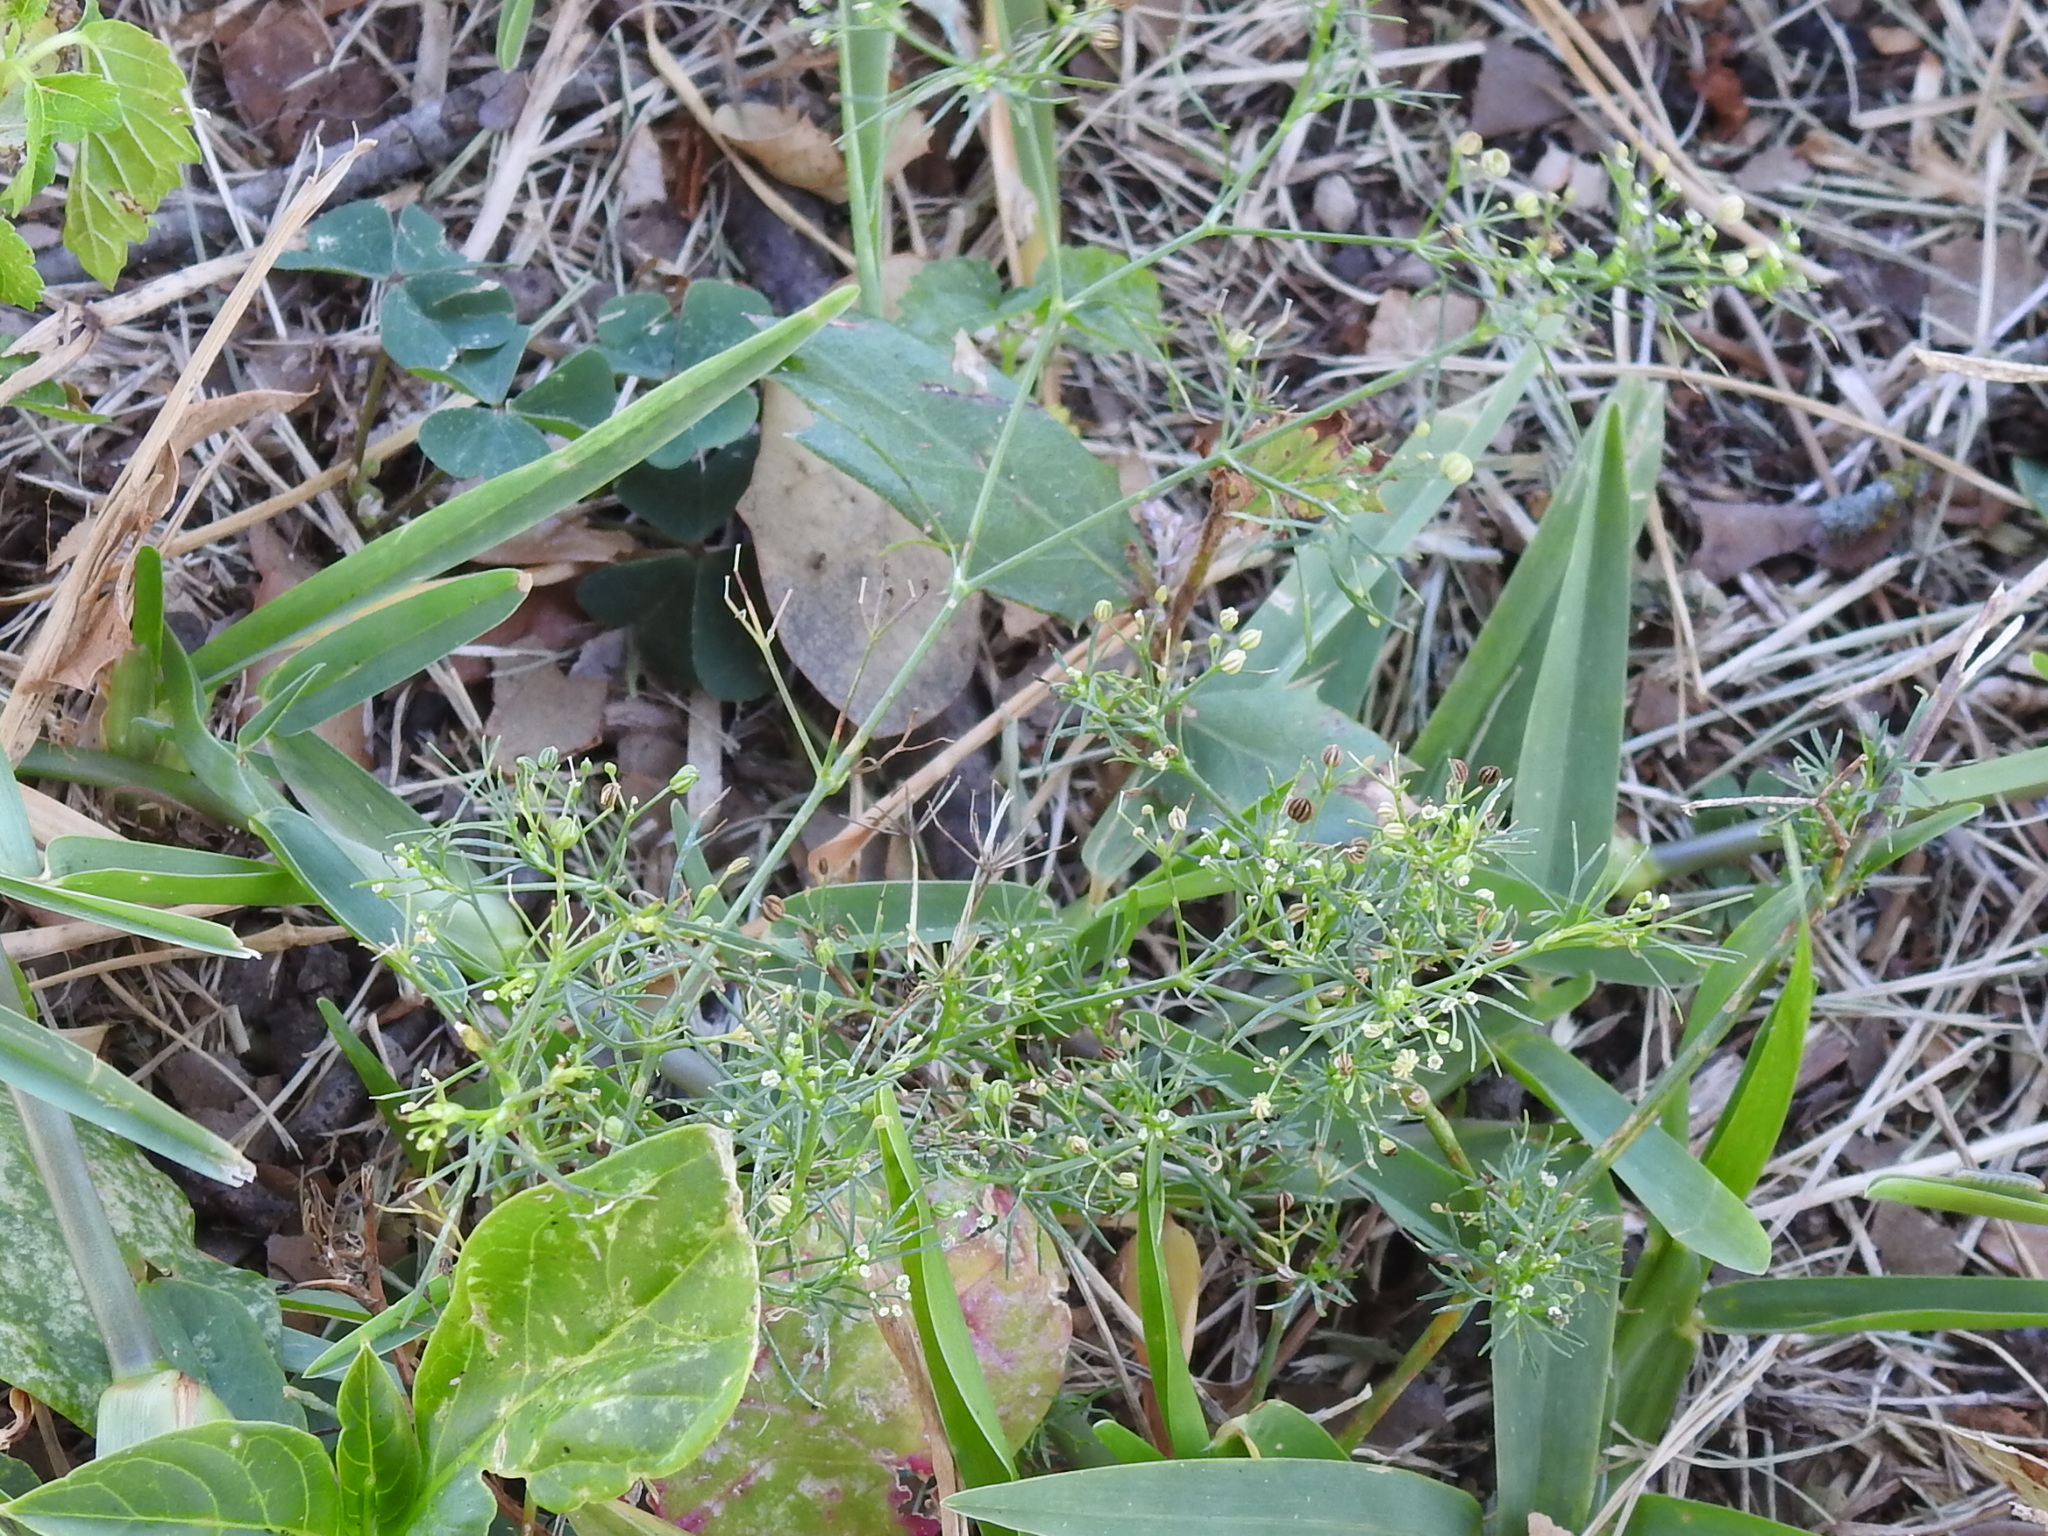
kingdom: Plantae
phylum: Tracheophyta
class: Magnoliopsida
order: Apiales
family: Apiaceae
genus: Cyclospermum
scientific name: Cyclospermum leptophyllum
